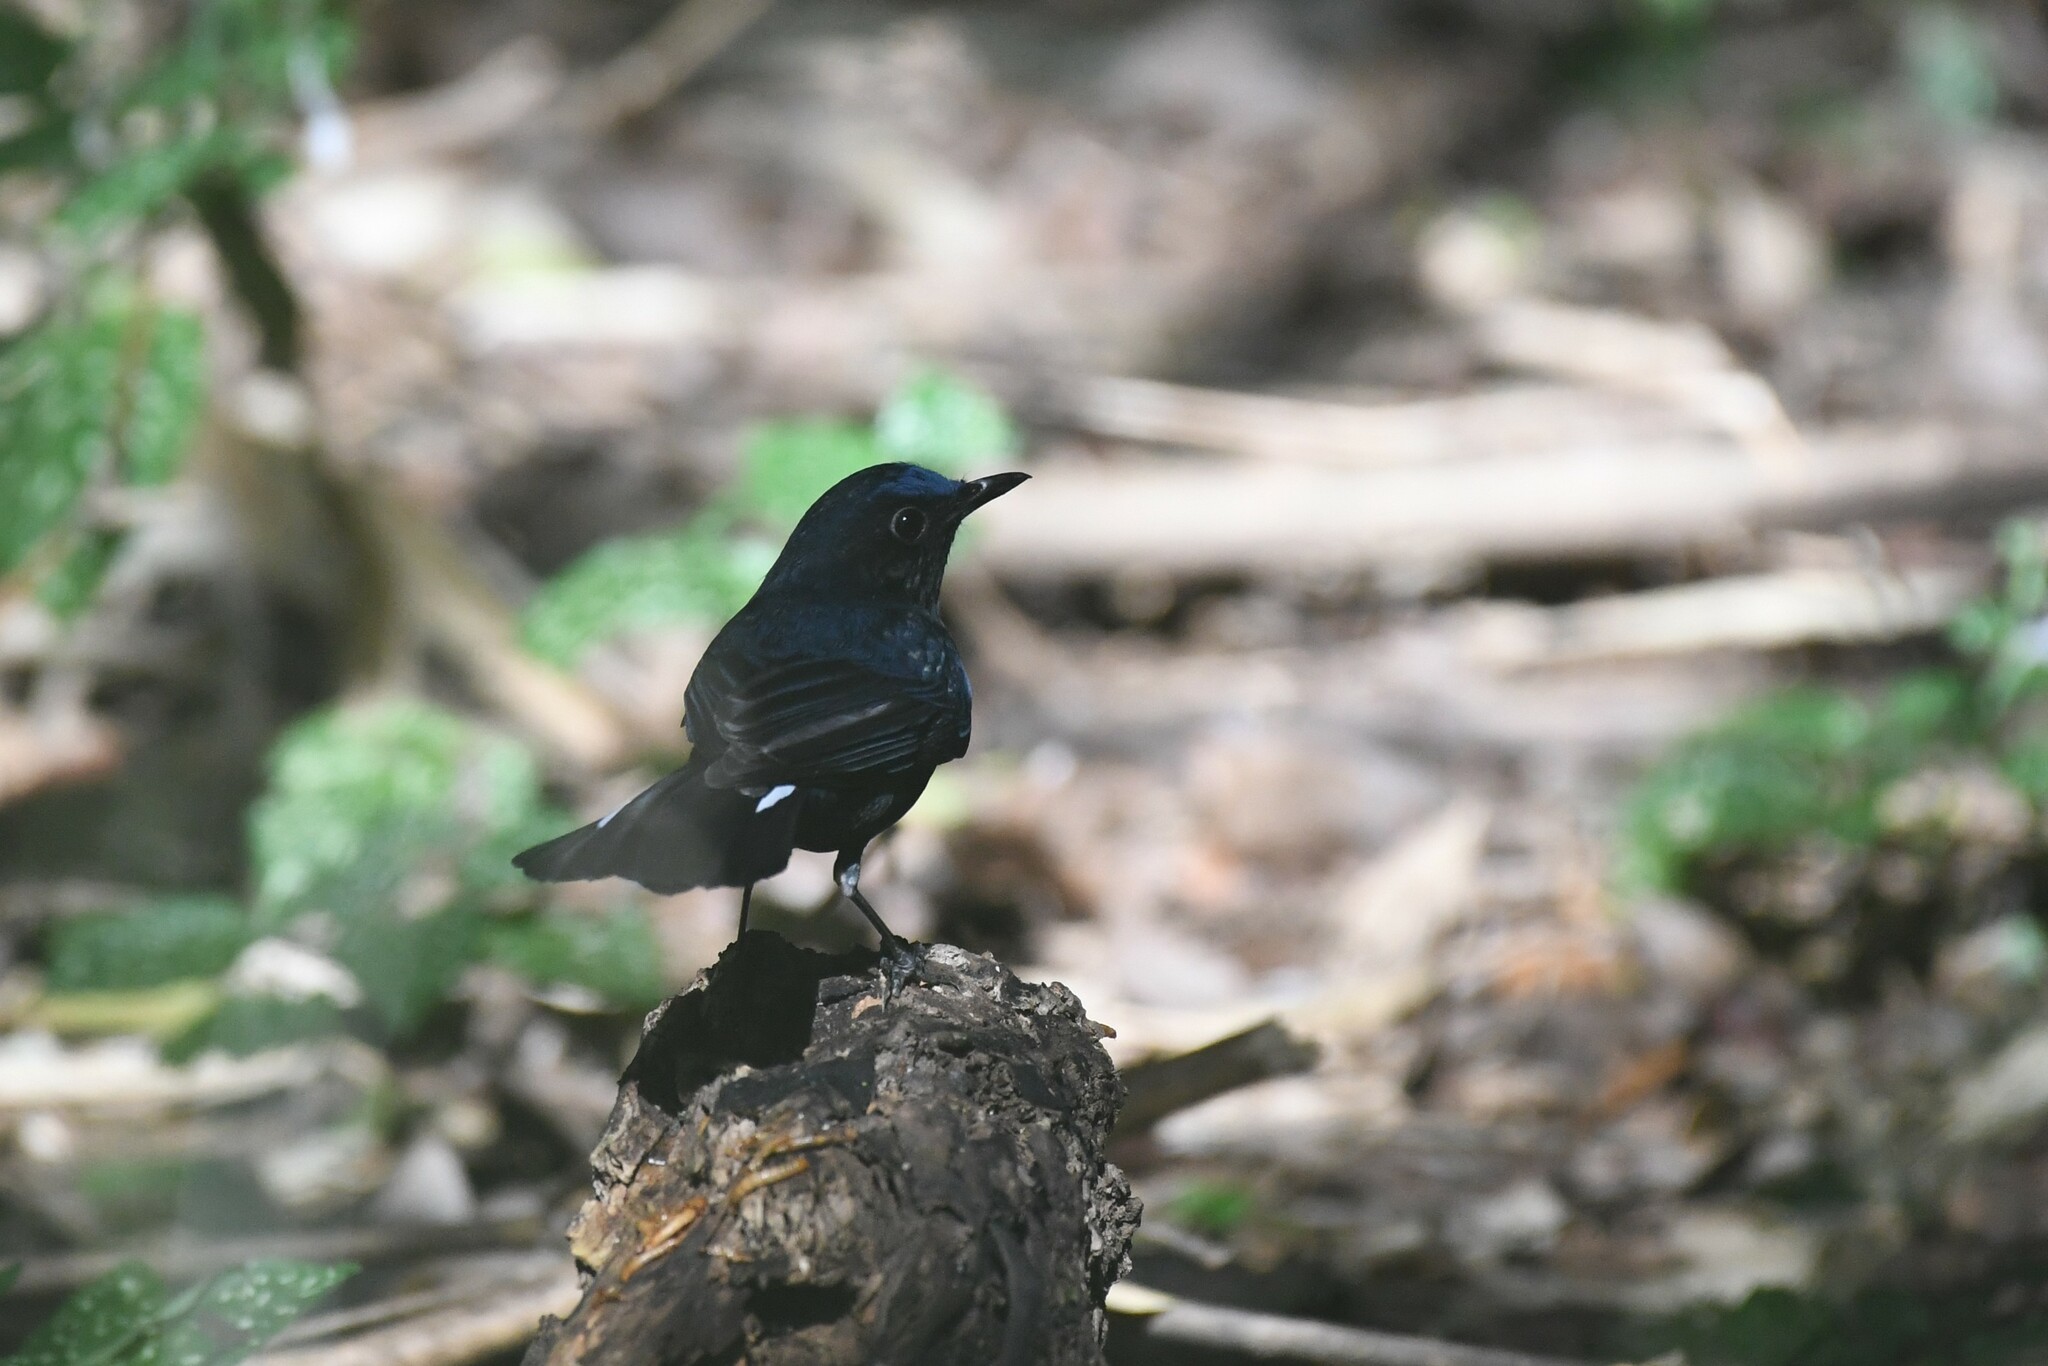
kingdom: Animalia
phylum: Chordata
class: Aves
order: Passeriformes
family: Muscicapidae
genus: Myiomela
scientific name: Myiomela leucura
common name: White-tailed robin
